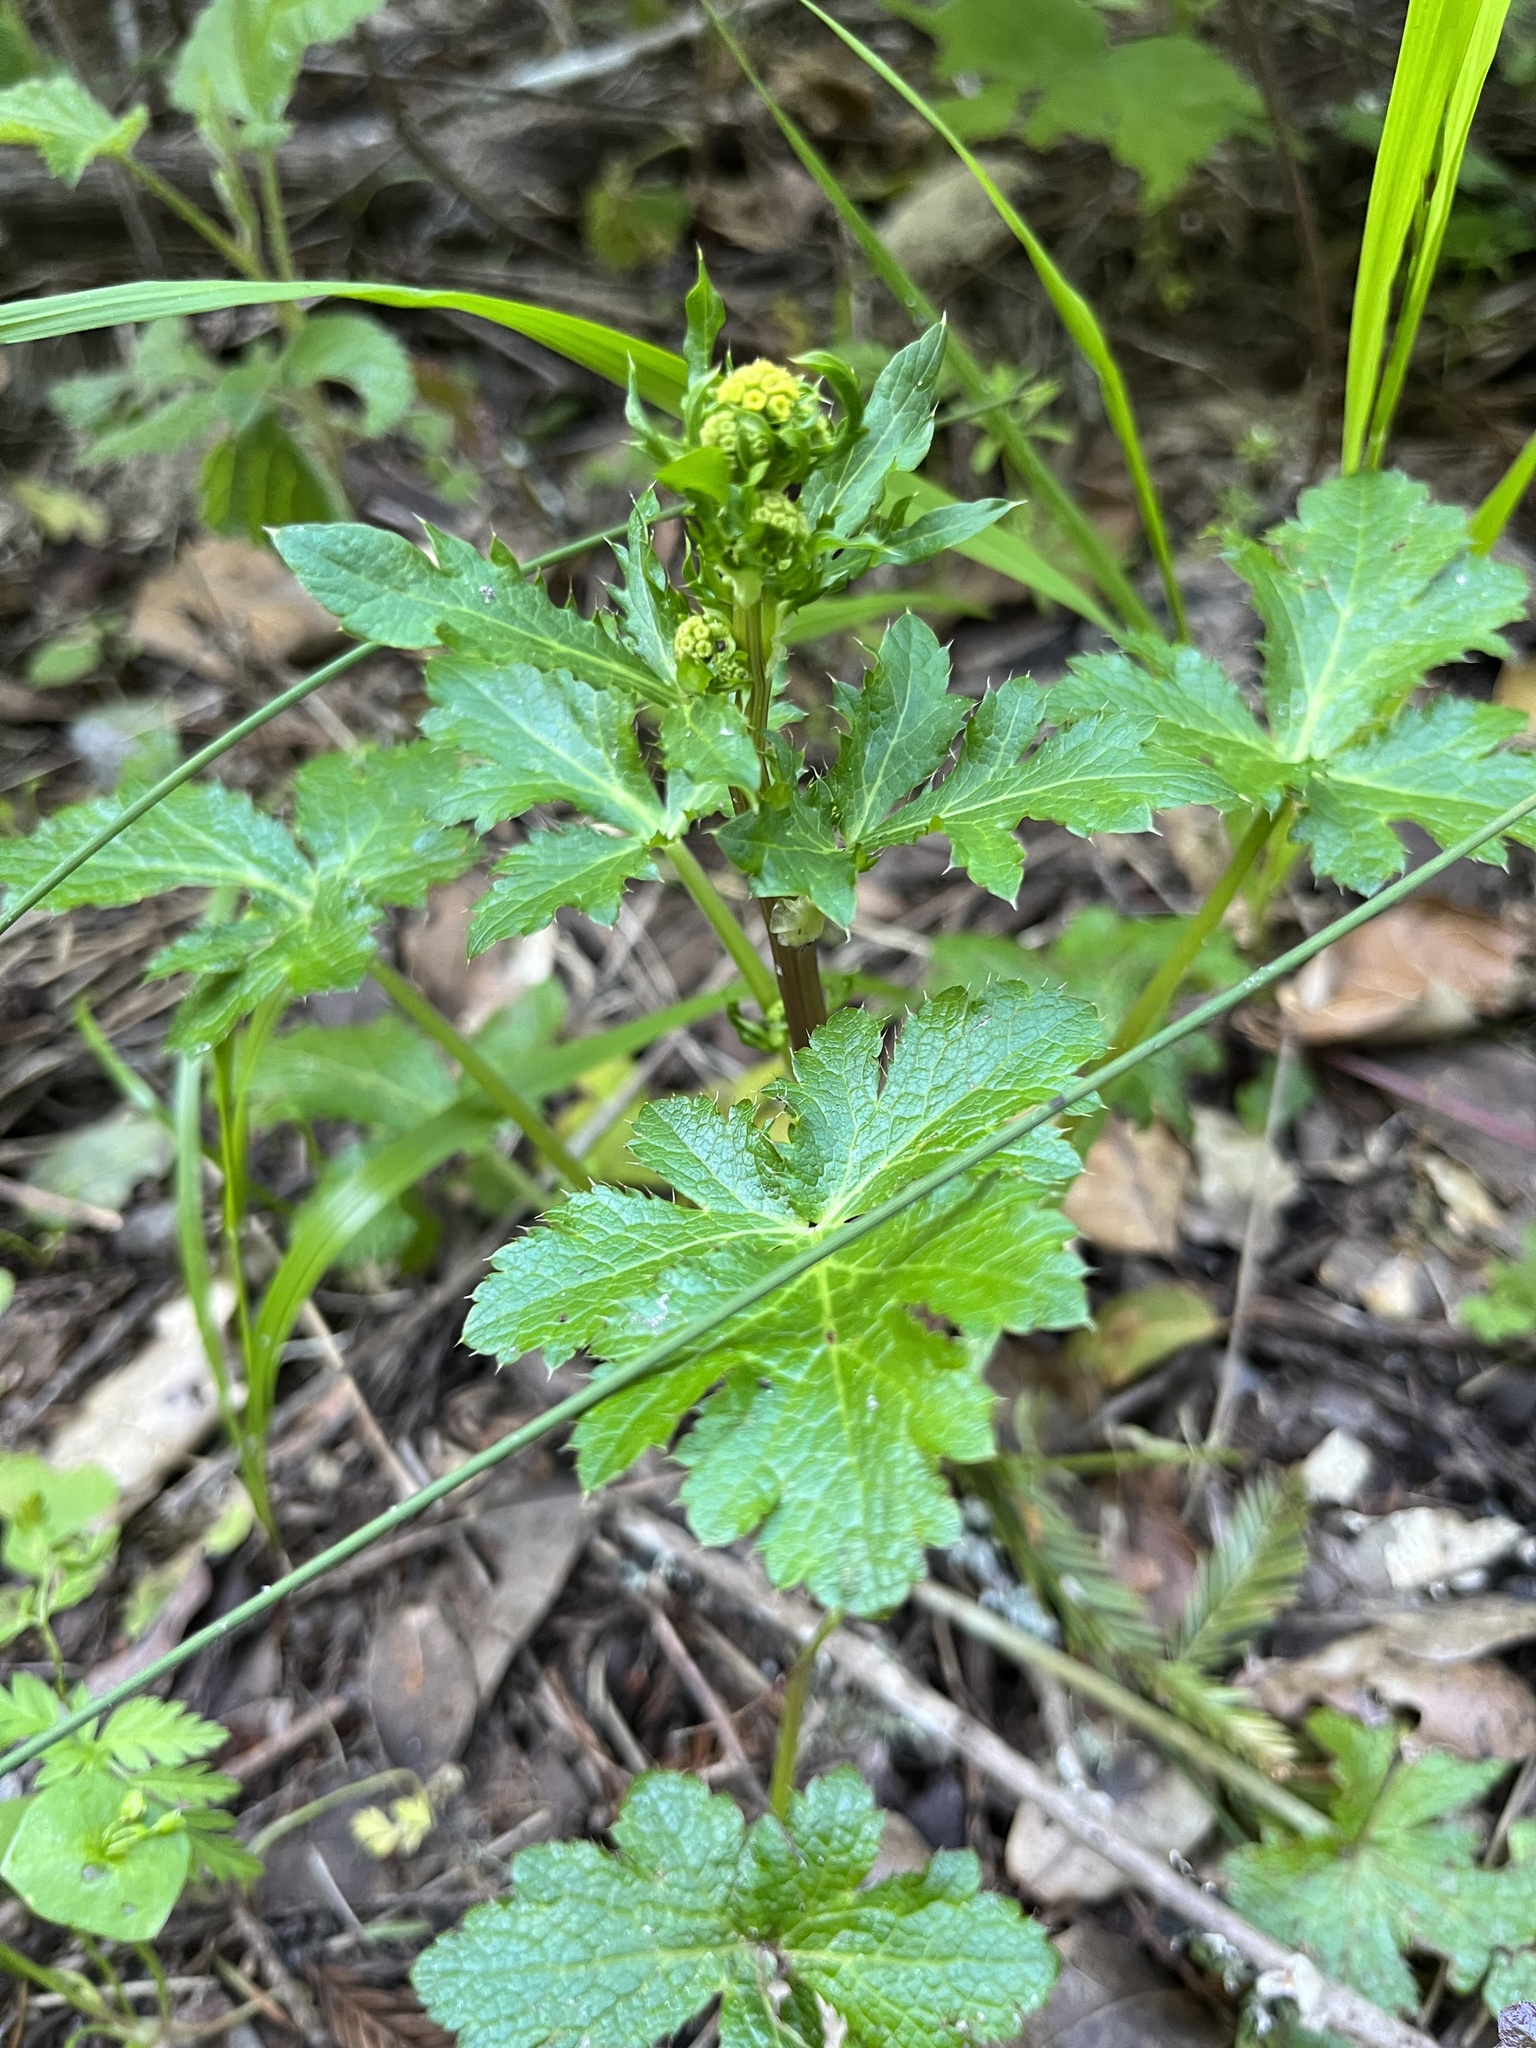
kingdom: Plantae
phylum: Tracheophyta
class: Magnoliopsida
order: Apiales
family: Apiaceae
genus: Sanicula
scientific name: Sanicula crassicaulis
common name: Western snakeroot
